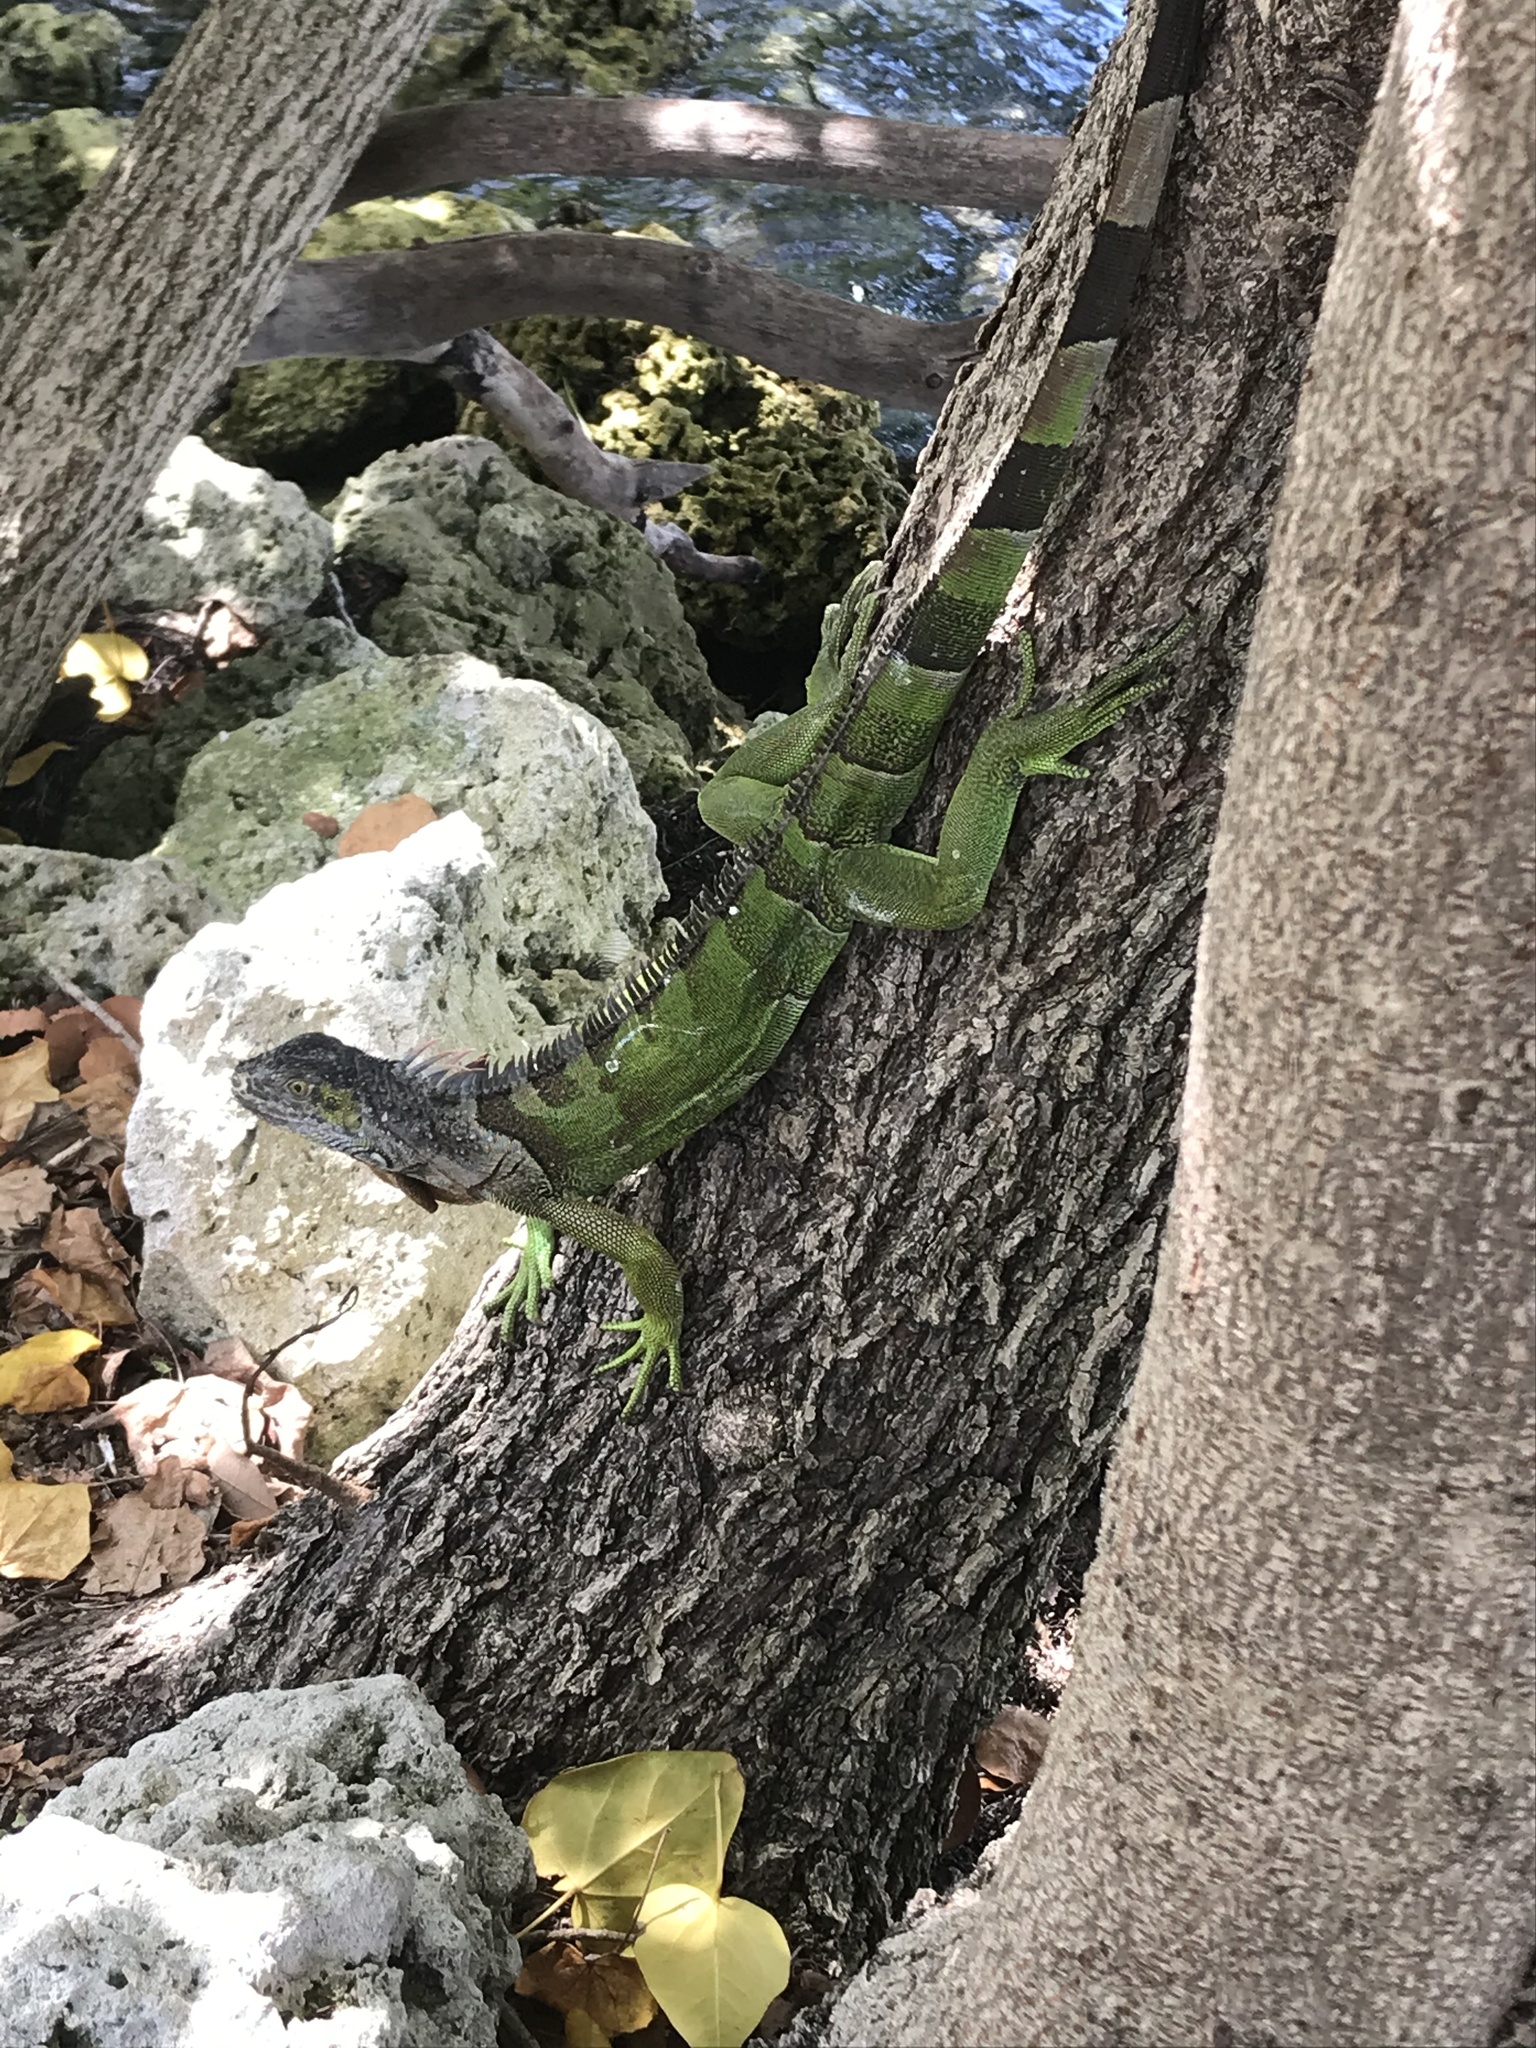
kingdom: Animalia
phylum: Chordata
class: Squamata
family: Iguanidae
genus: Iguana
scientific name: Iguana iguana
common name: Green iguana
